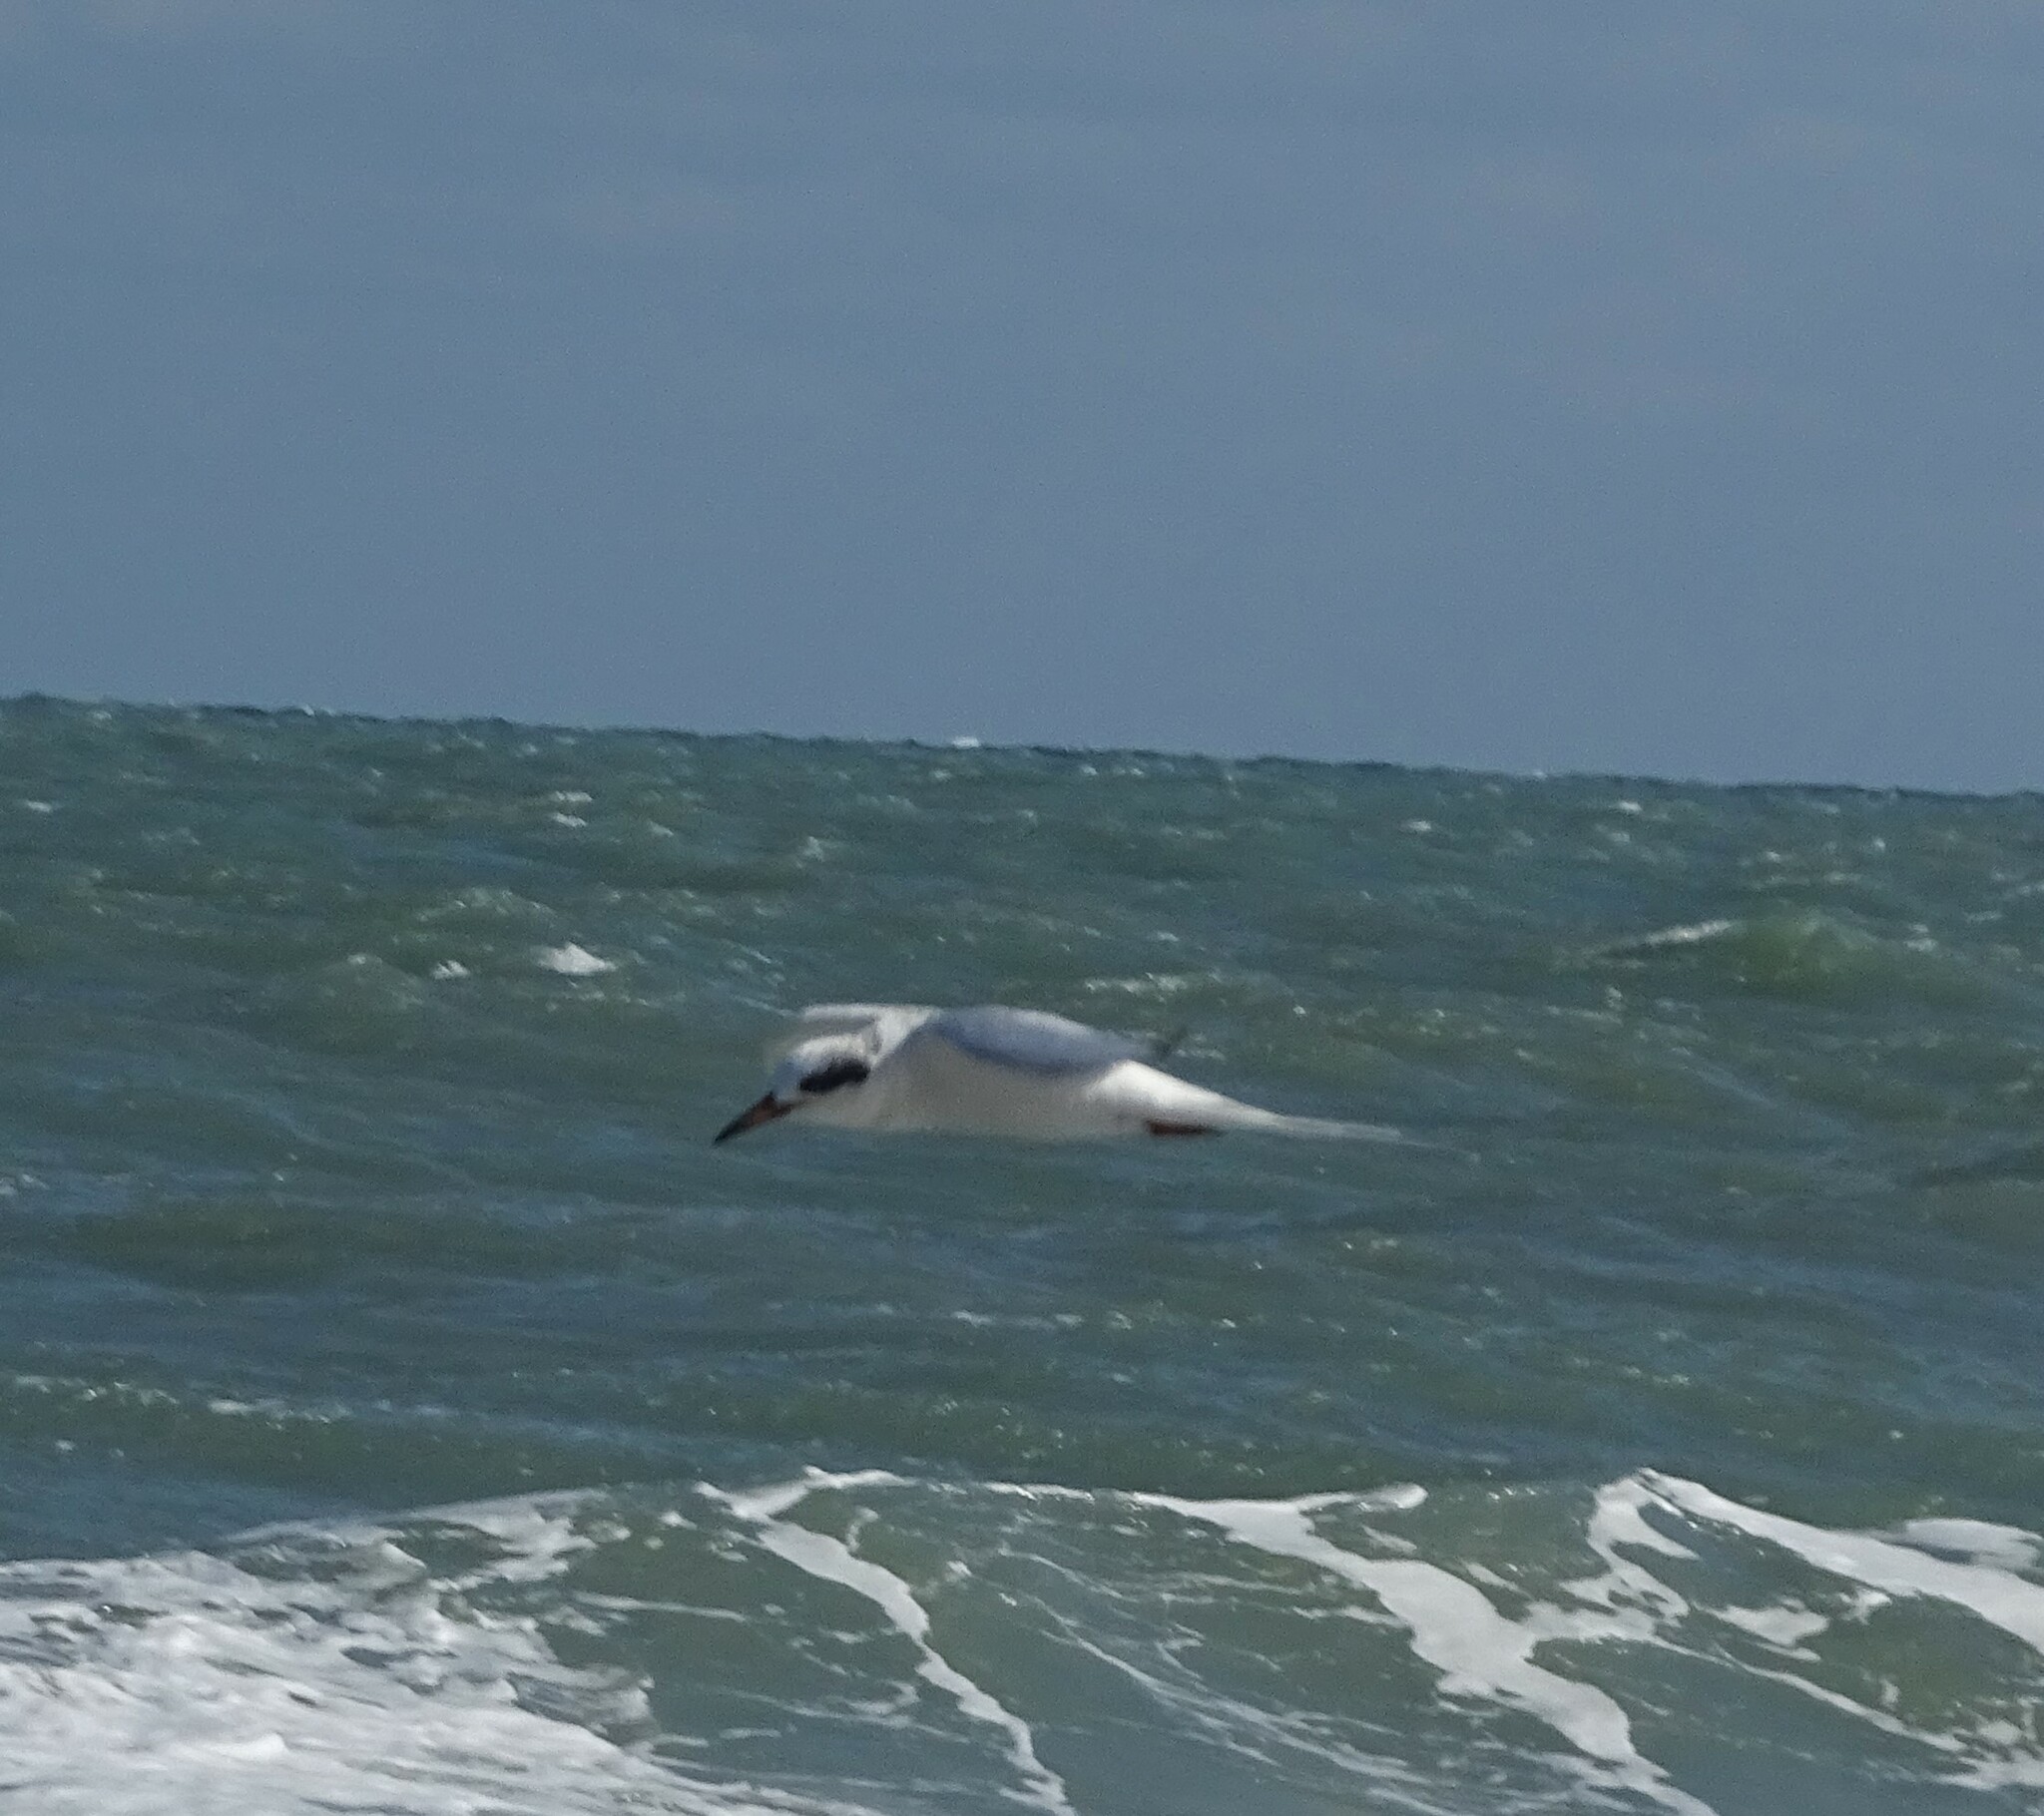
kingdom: Animalia
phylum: Chordata
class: Aves
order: Charadriiformes
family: Laridae
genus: Sterna
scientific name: Sterna forsteri
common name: Forster's tern
